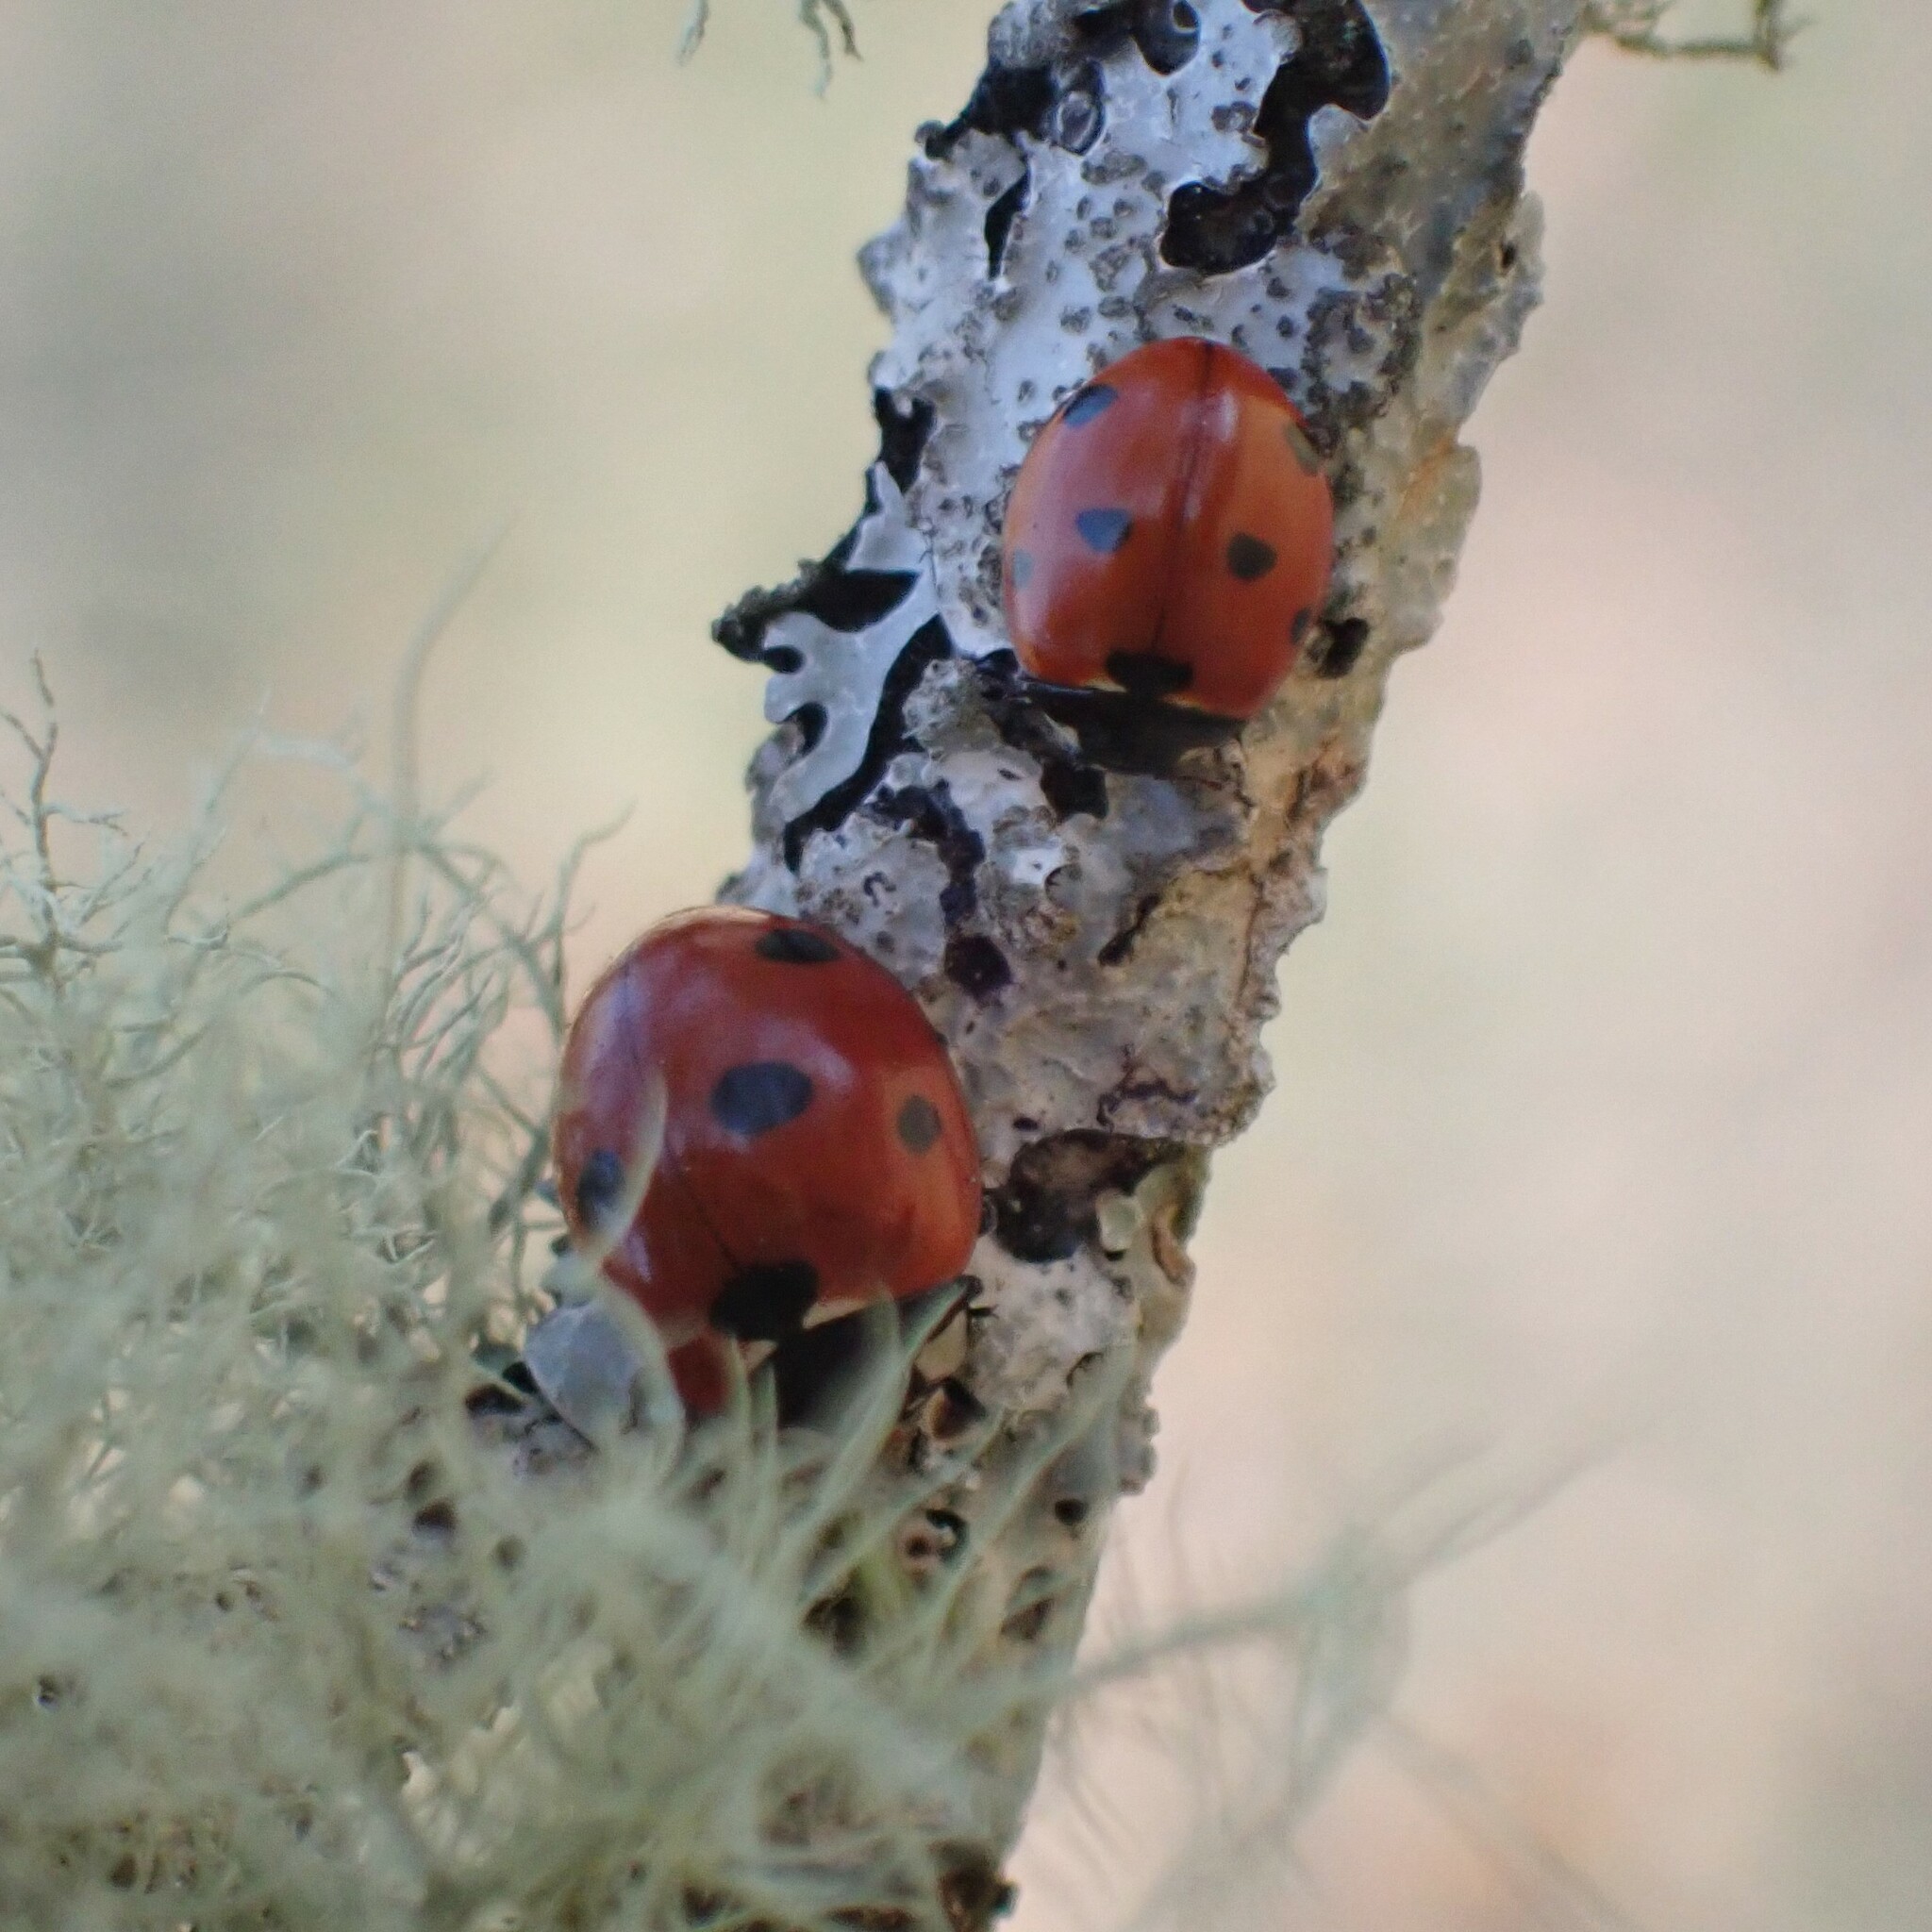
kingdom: Animalia
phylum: Arthropoda
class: Insecta
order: Coleoptera
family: Coccinellidae
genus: Coccinella
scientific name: Coccinella septempunctata
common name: Sevenspotted lady beetle
